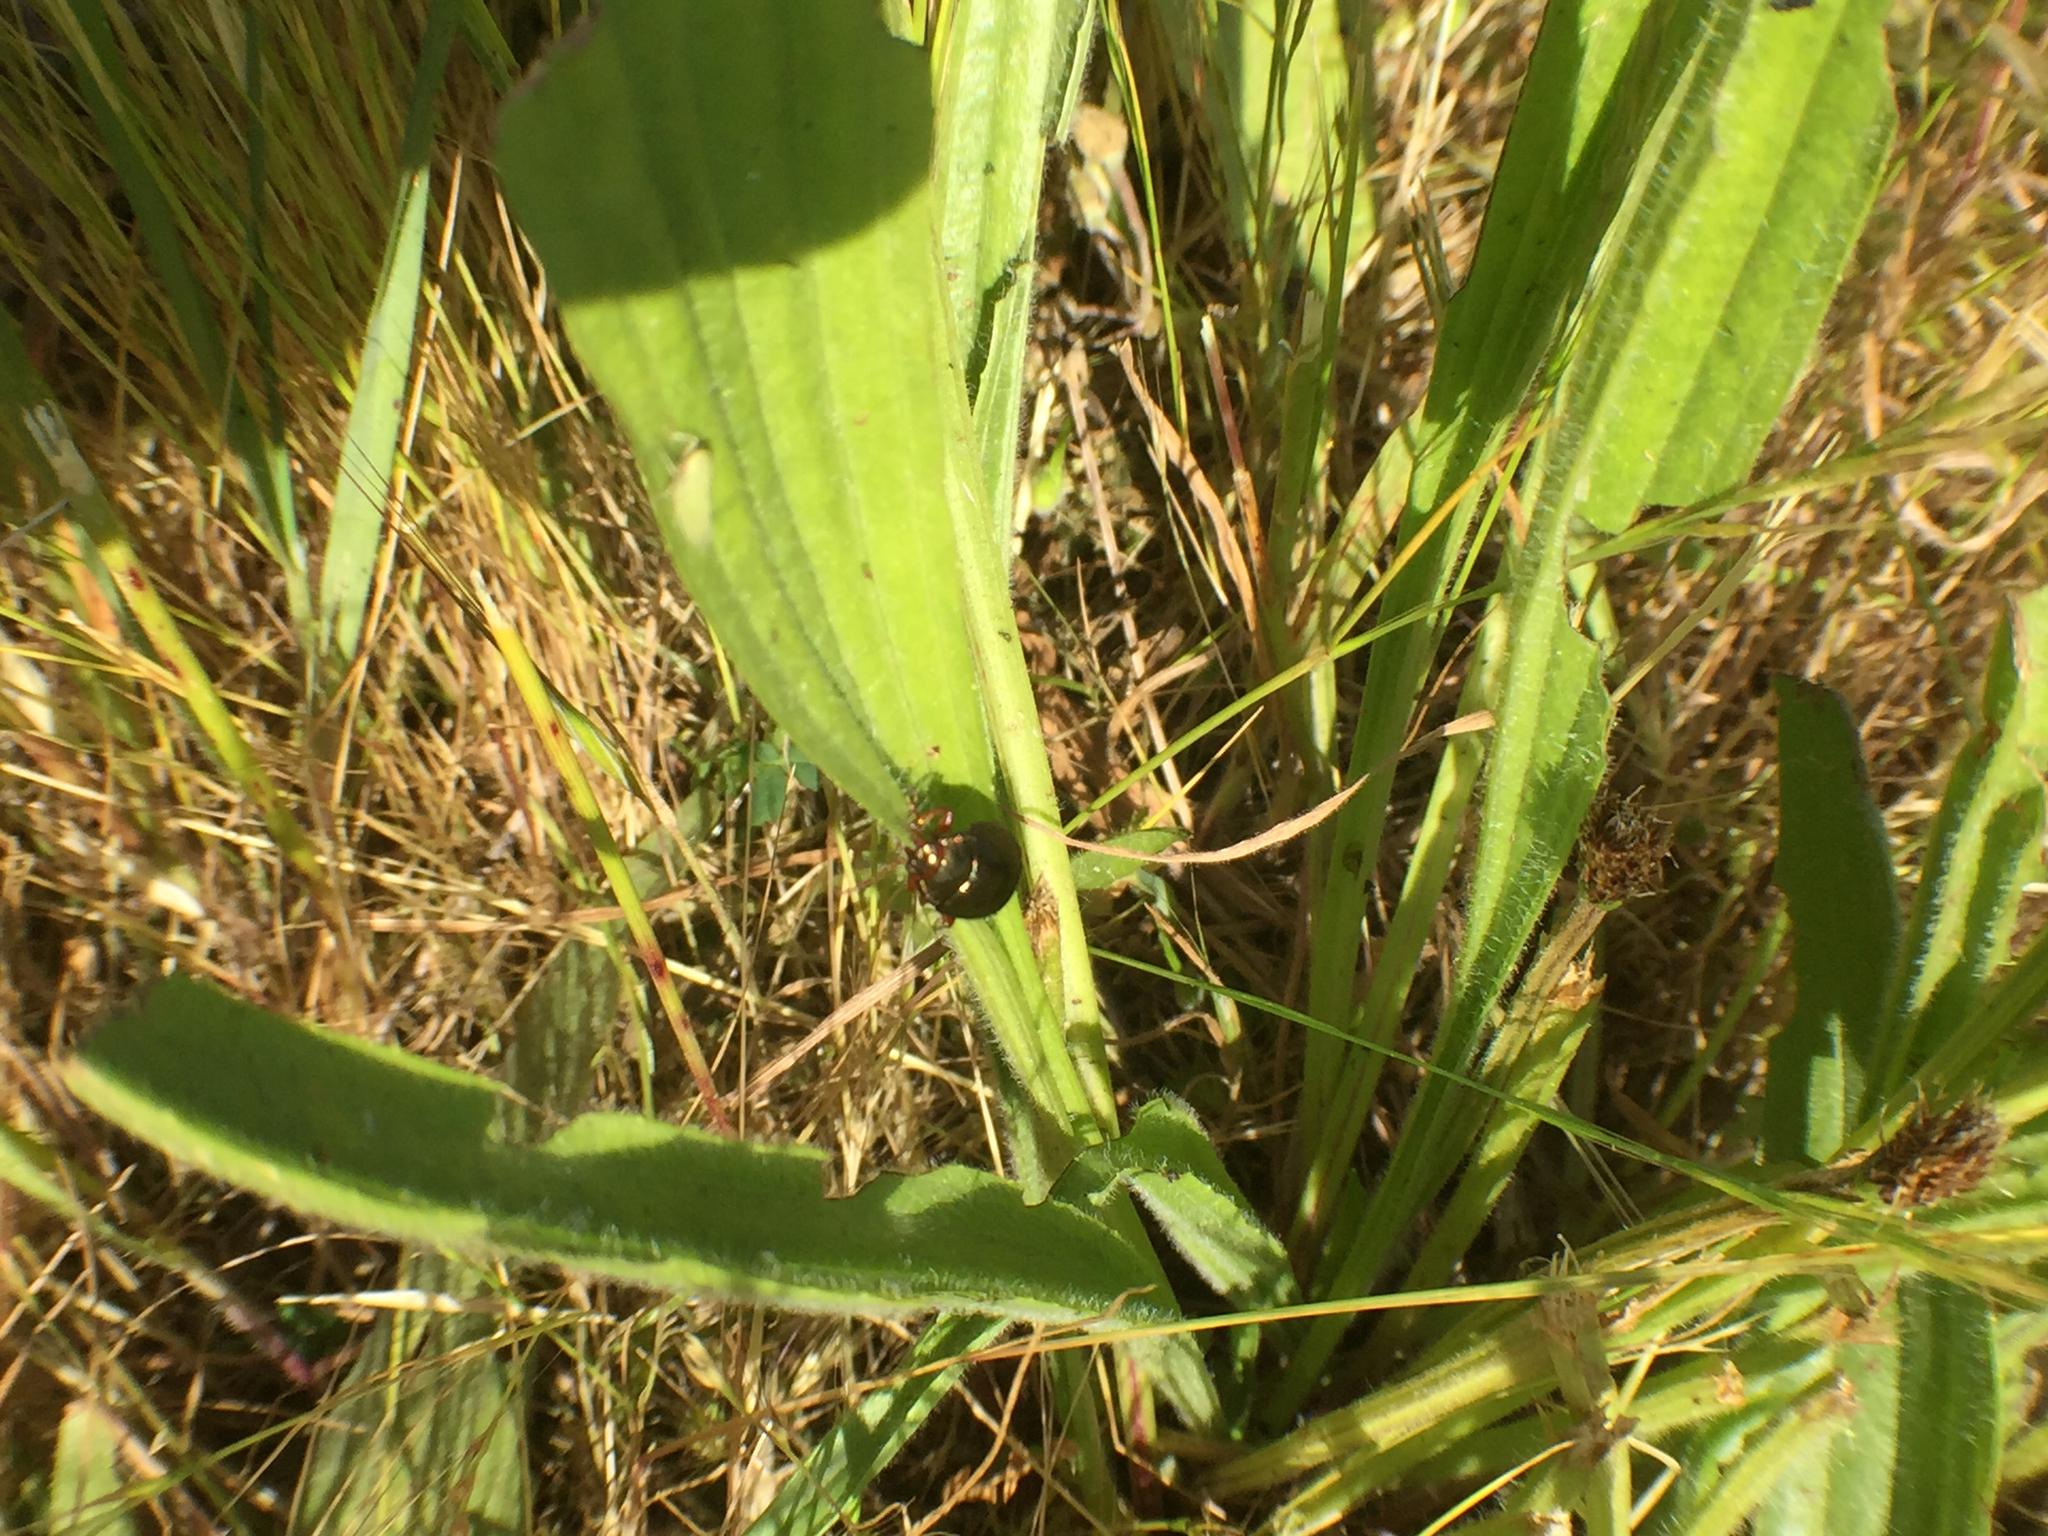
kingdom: Animalia
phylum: Arthropoda
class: Insecta
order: Coleoptera
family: Chrysomelidae
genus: Chrysolina
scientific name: Chrysolina bankii
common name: Leaf beetle
